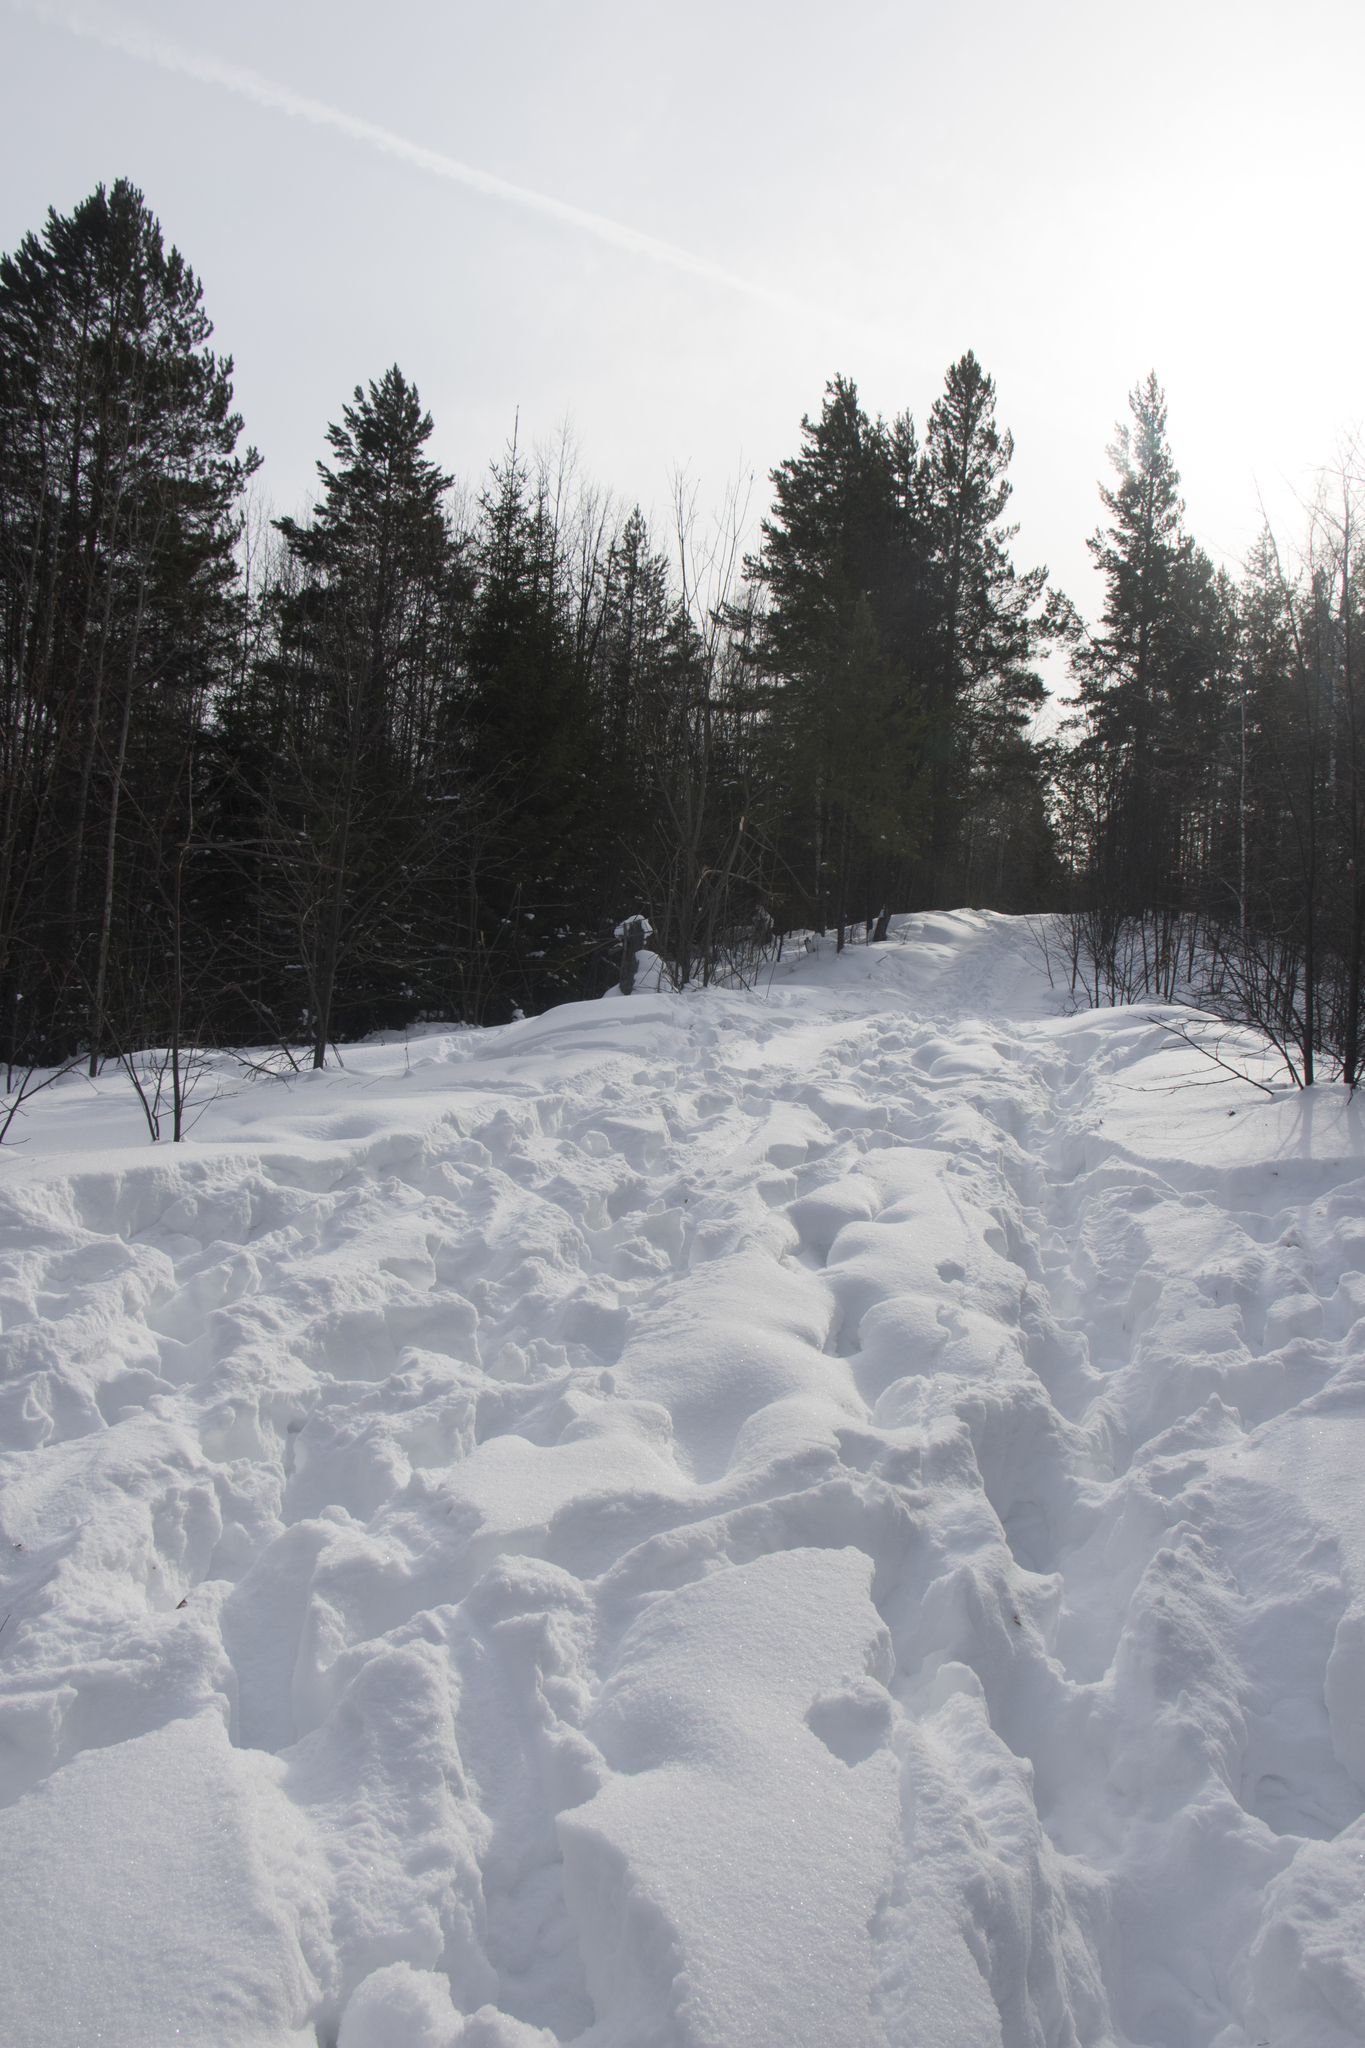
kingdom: Animalia
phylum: Chordata
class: Mammalia
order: Artiodactyla
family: Cervidae
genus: Alces
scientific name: Alces alces
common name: Moose
